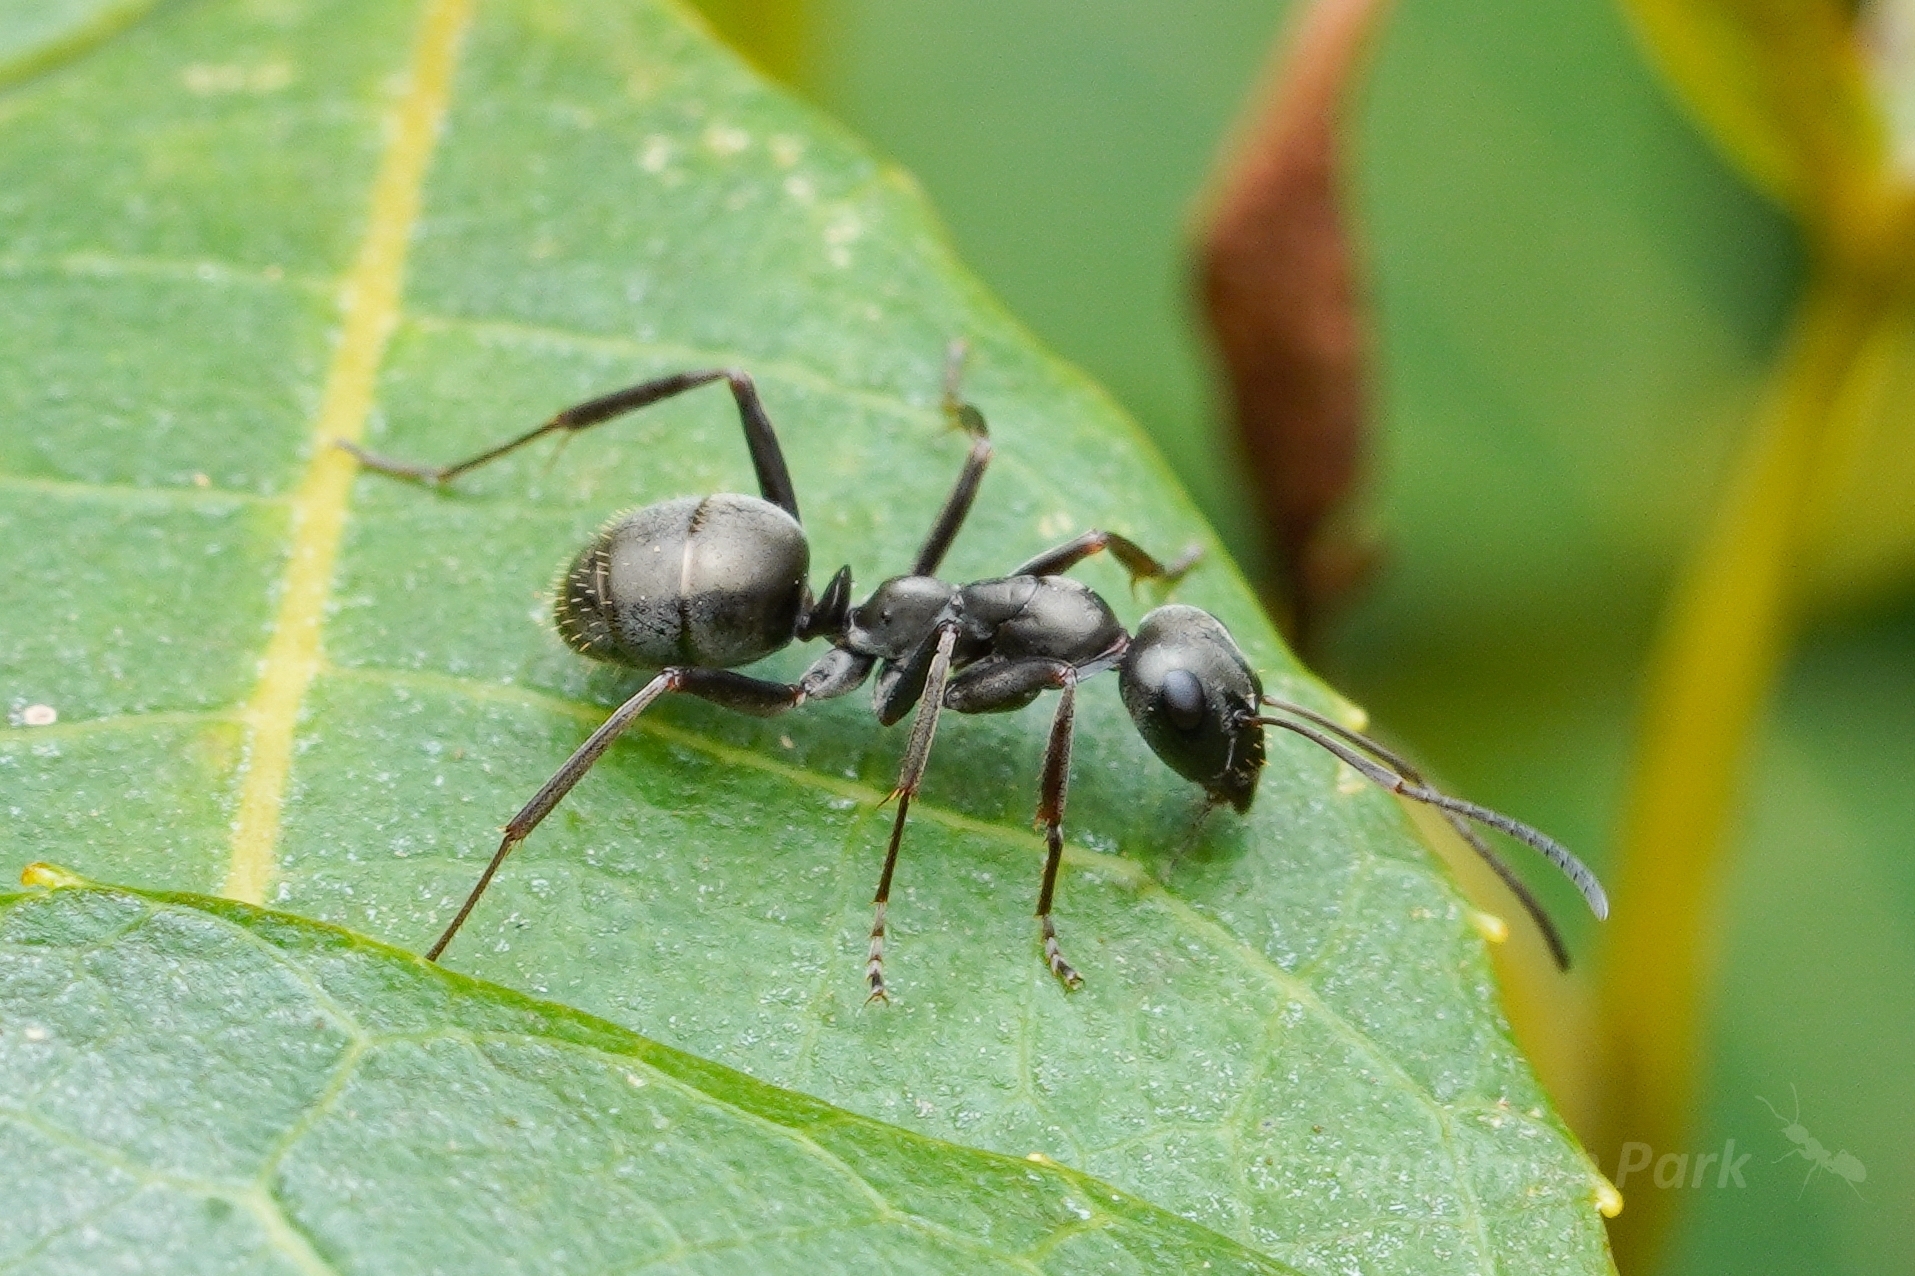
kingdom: Animalia
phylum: Arthropoda
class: Insecta
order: Hymenoptera
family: Formicidae
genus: Formica
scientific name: Formica subsericea
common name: Silky field ant
